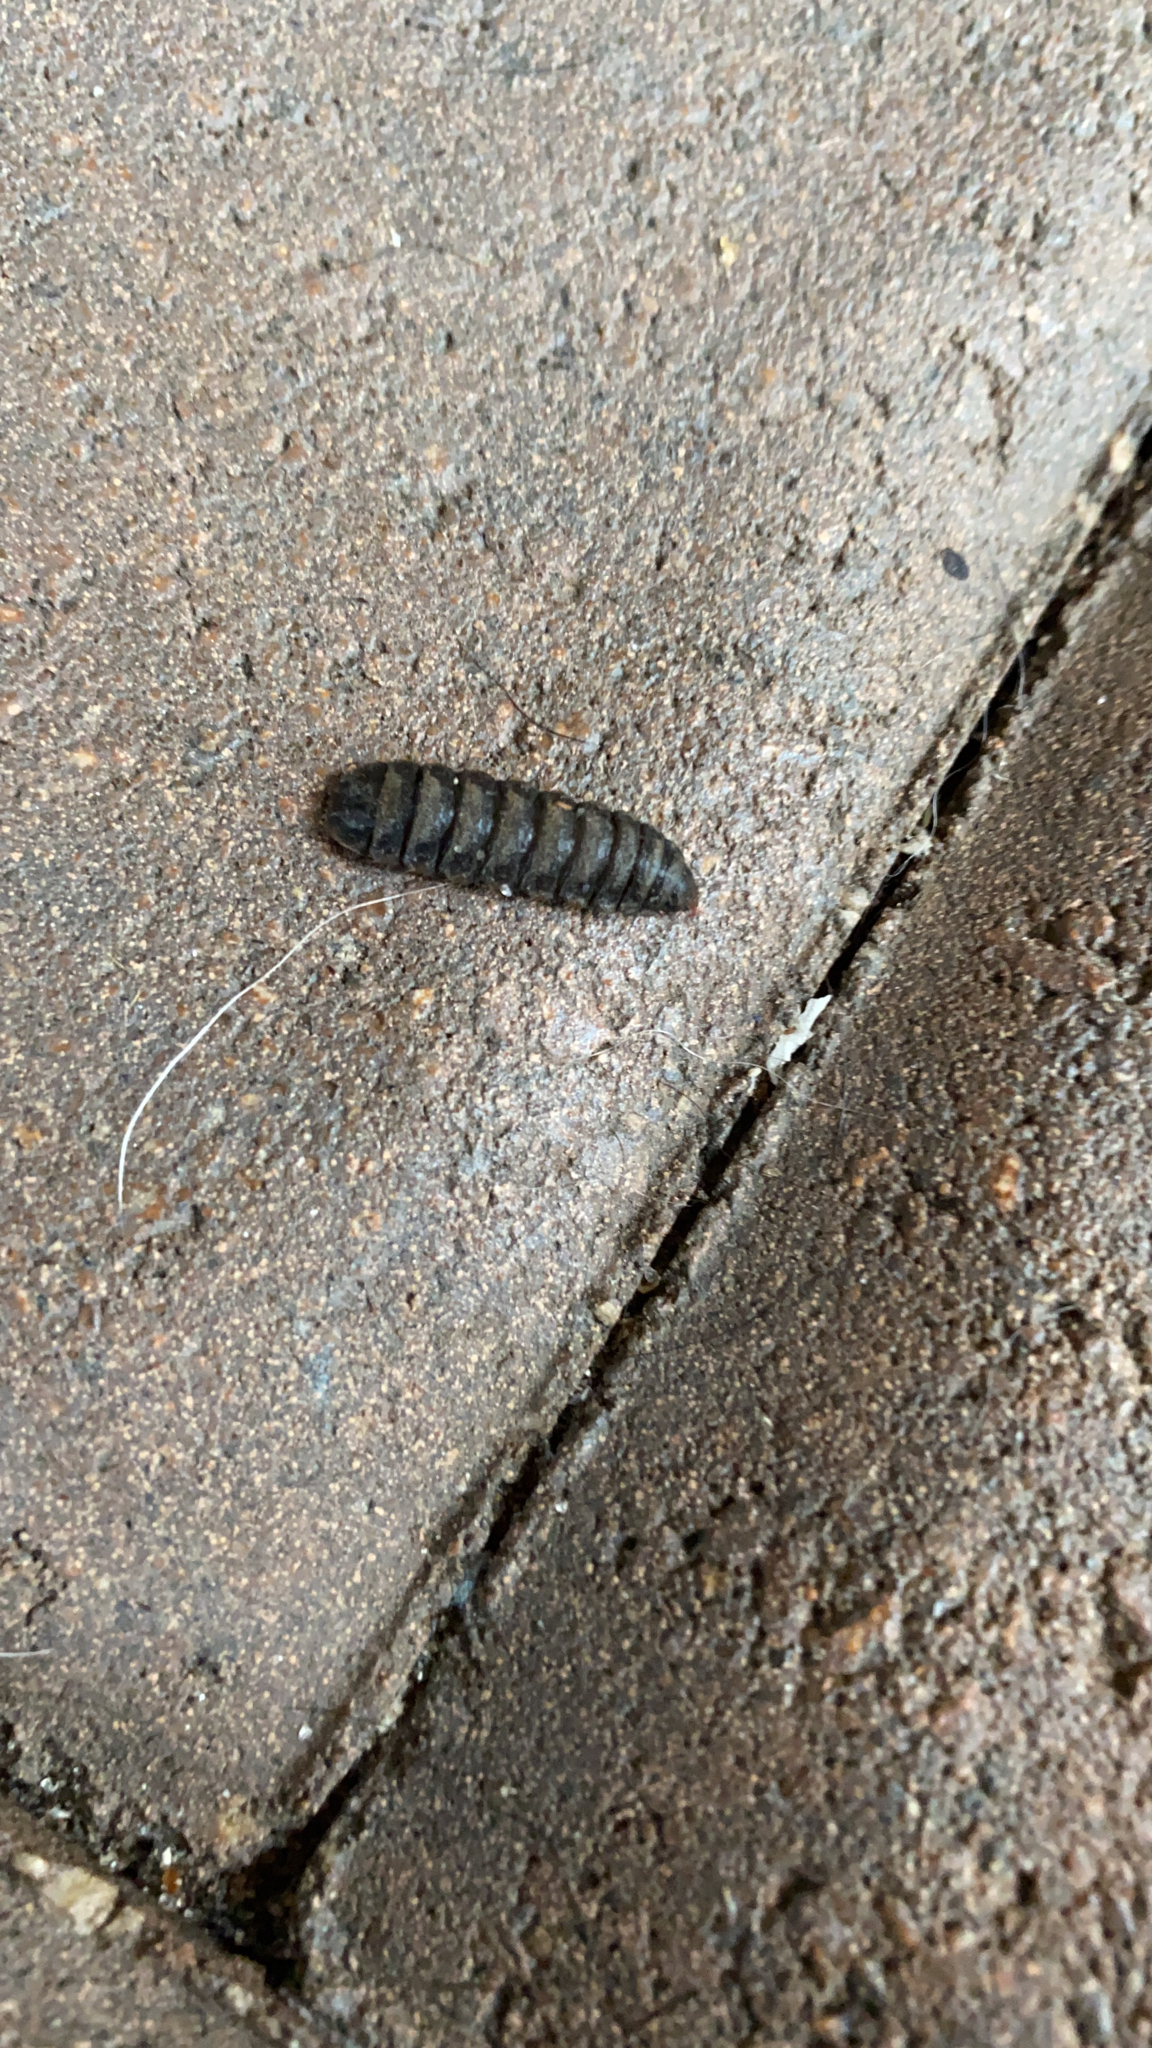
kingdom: Animalia
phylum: Arthropoda
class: Insecta
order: Diptera
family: Stratiomyidae
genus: Hermetia
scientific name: Hermetia illucens
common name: Black soldier fly
